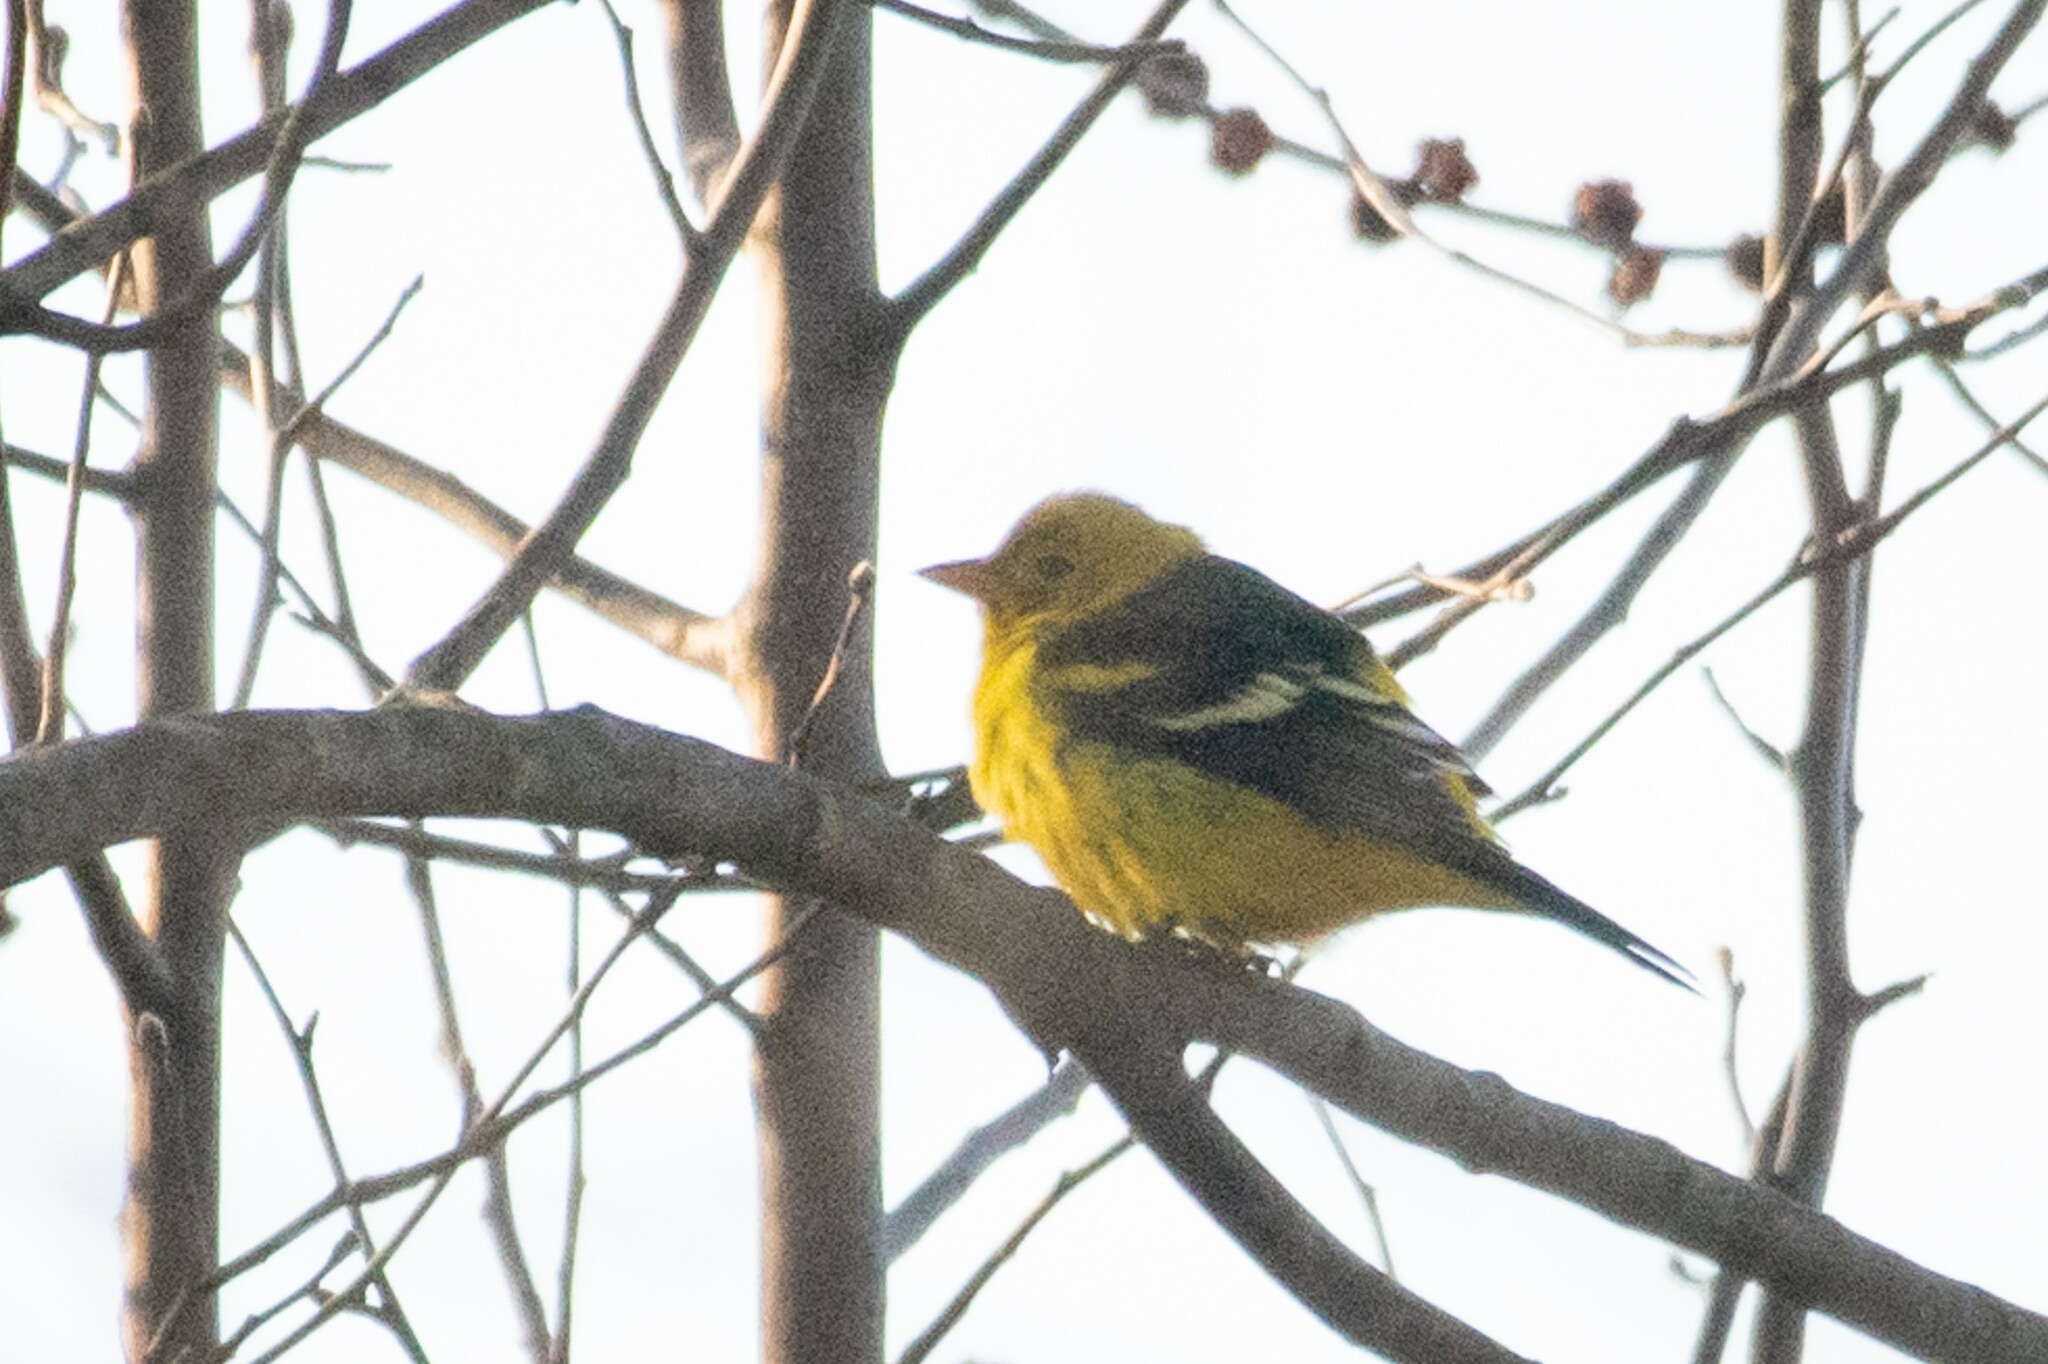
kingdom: Animalia
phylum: Chordata
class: Aves
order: Passeriformes
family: Cardinalidae
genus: Piranga
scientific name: Piranga ludoviciana
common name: Western tanager
